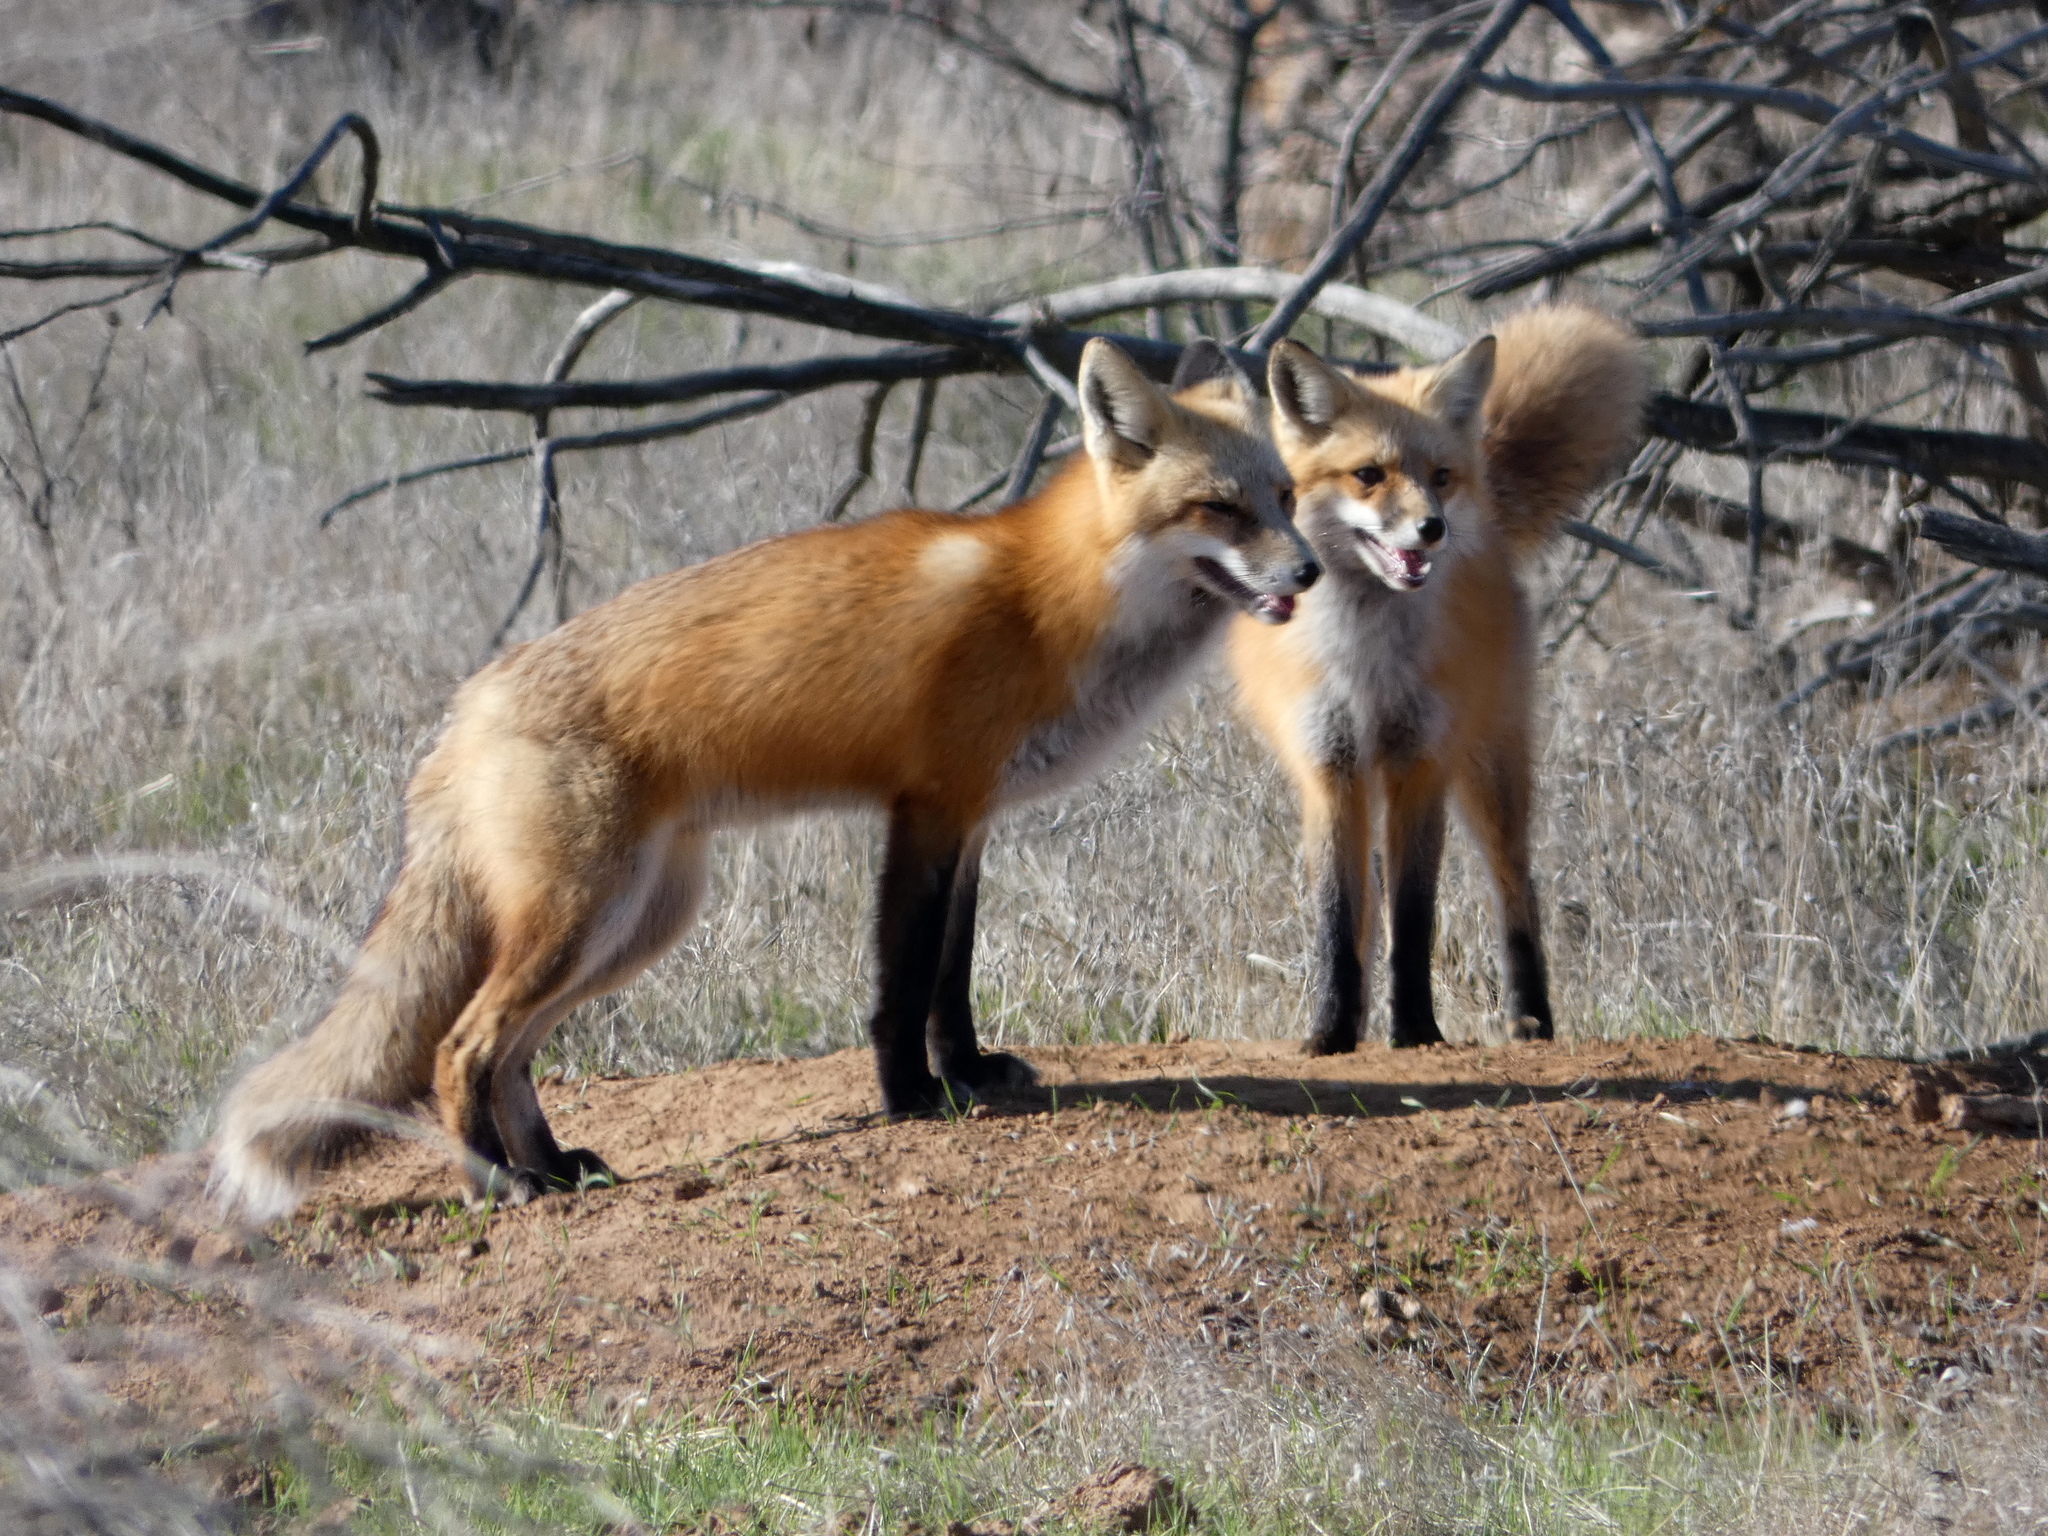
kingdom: Animalia
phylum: Chordata
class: Mammalia
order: Carnivora
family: Canidae
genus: Vulpes
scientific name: Vulpes vulpes
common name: Red fox
